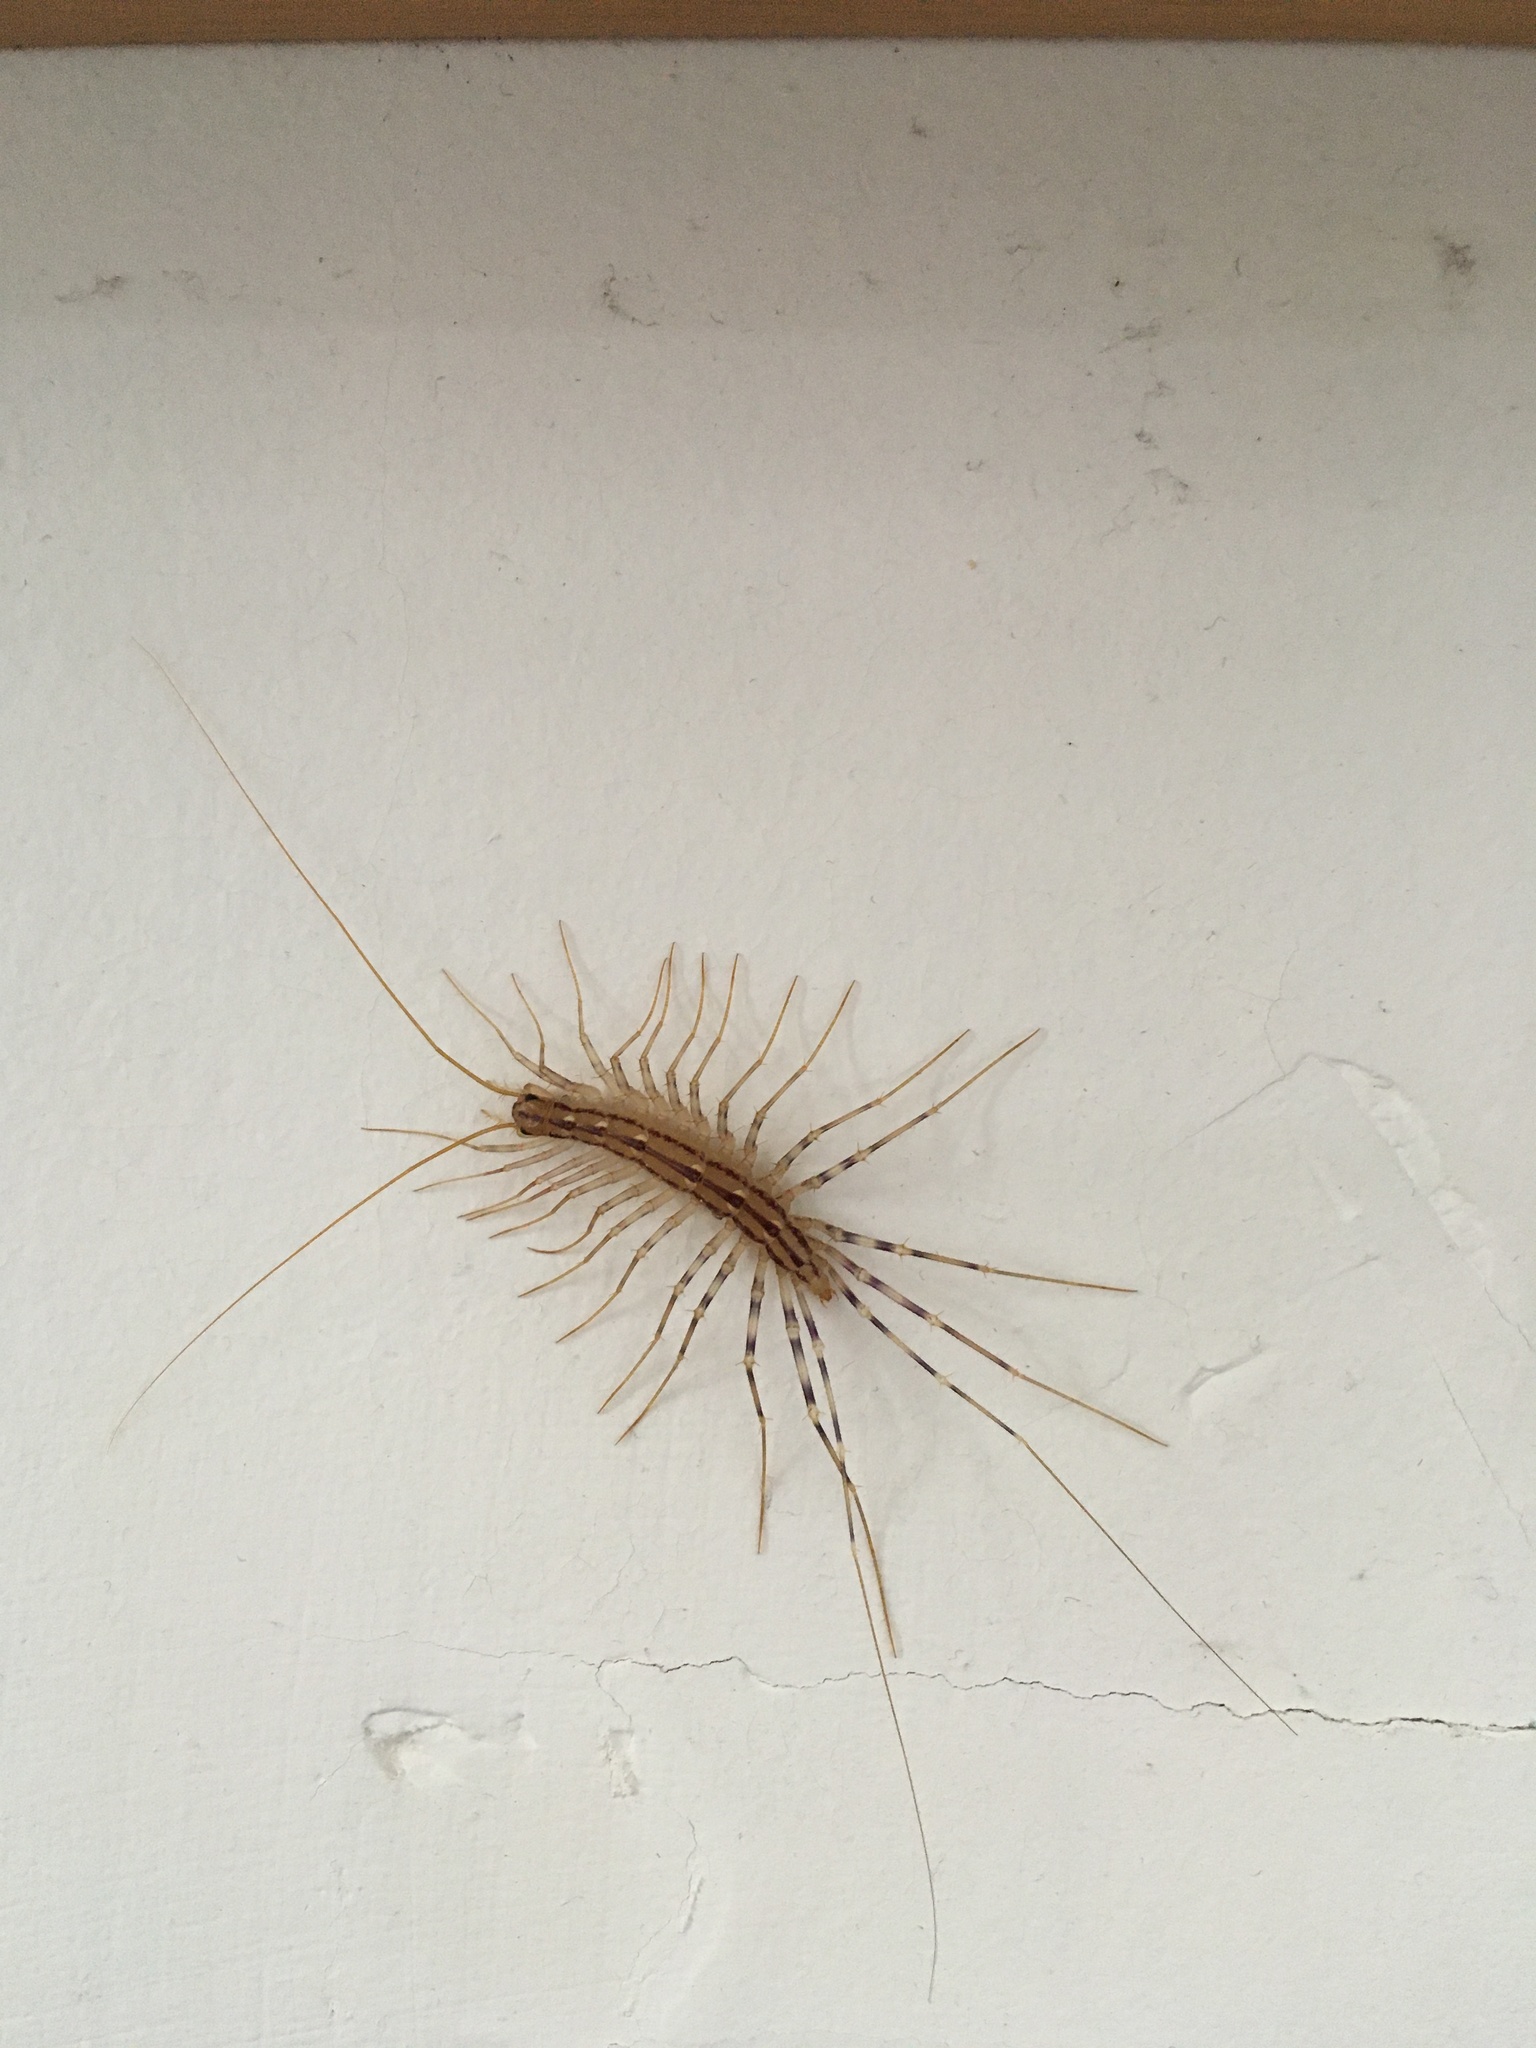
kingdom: Animalia
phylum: Arthropoda
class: Chilopoda
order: Scutigeromorpha
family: Scutigeridae
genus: Scutigera
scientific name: Scutigera coleoptrata
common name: House centipede
